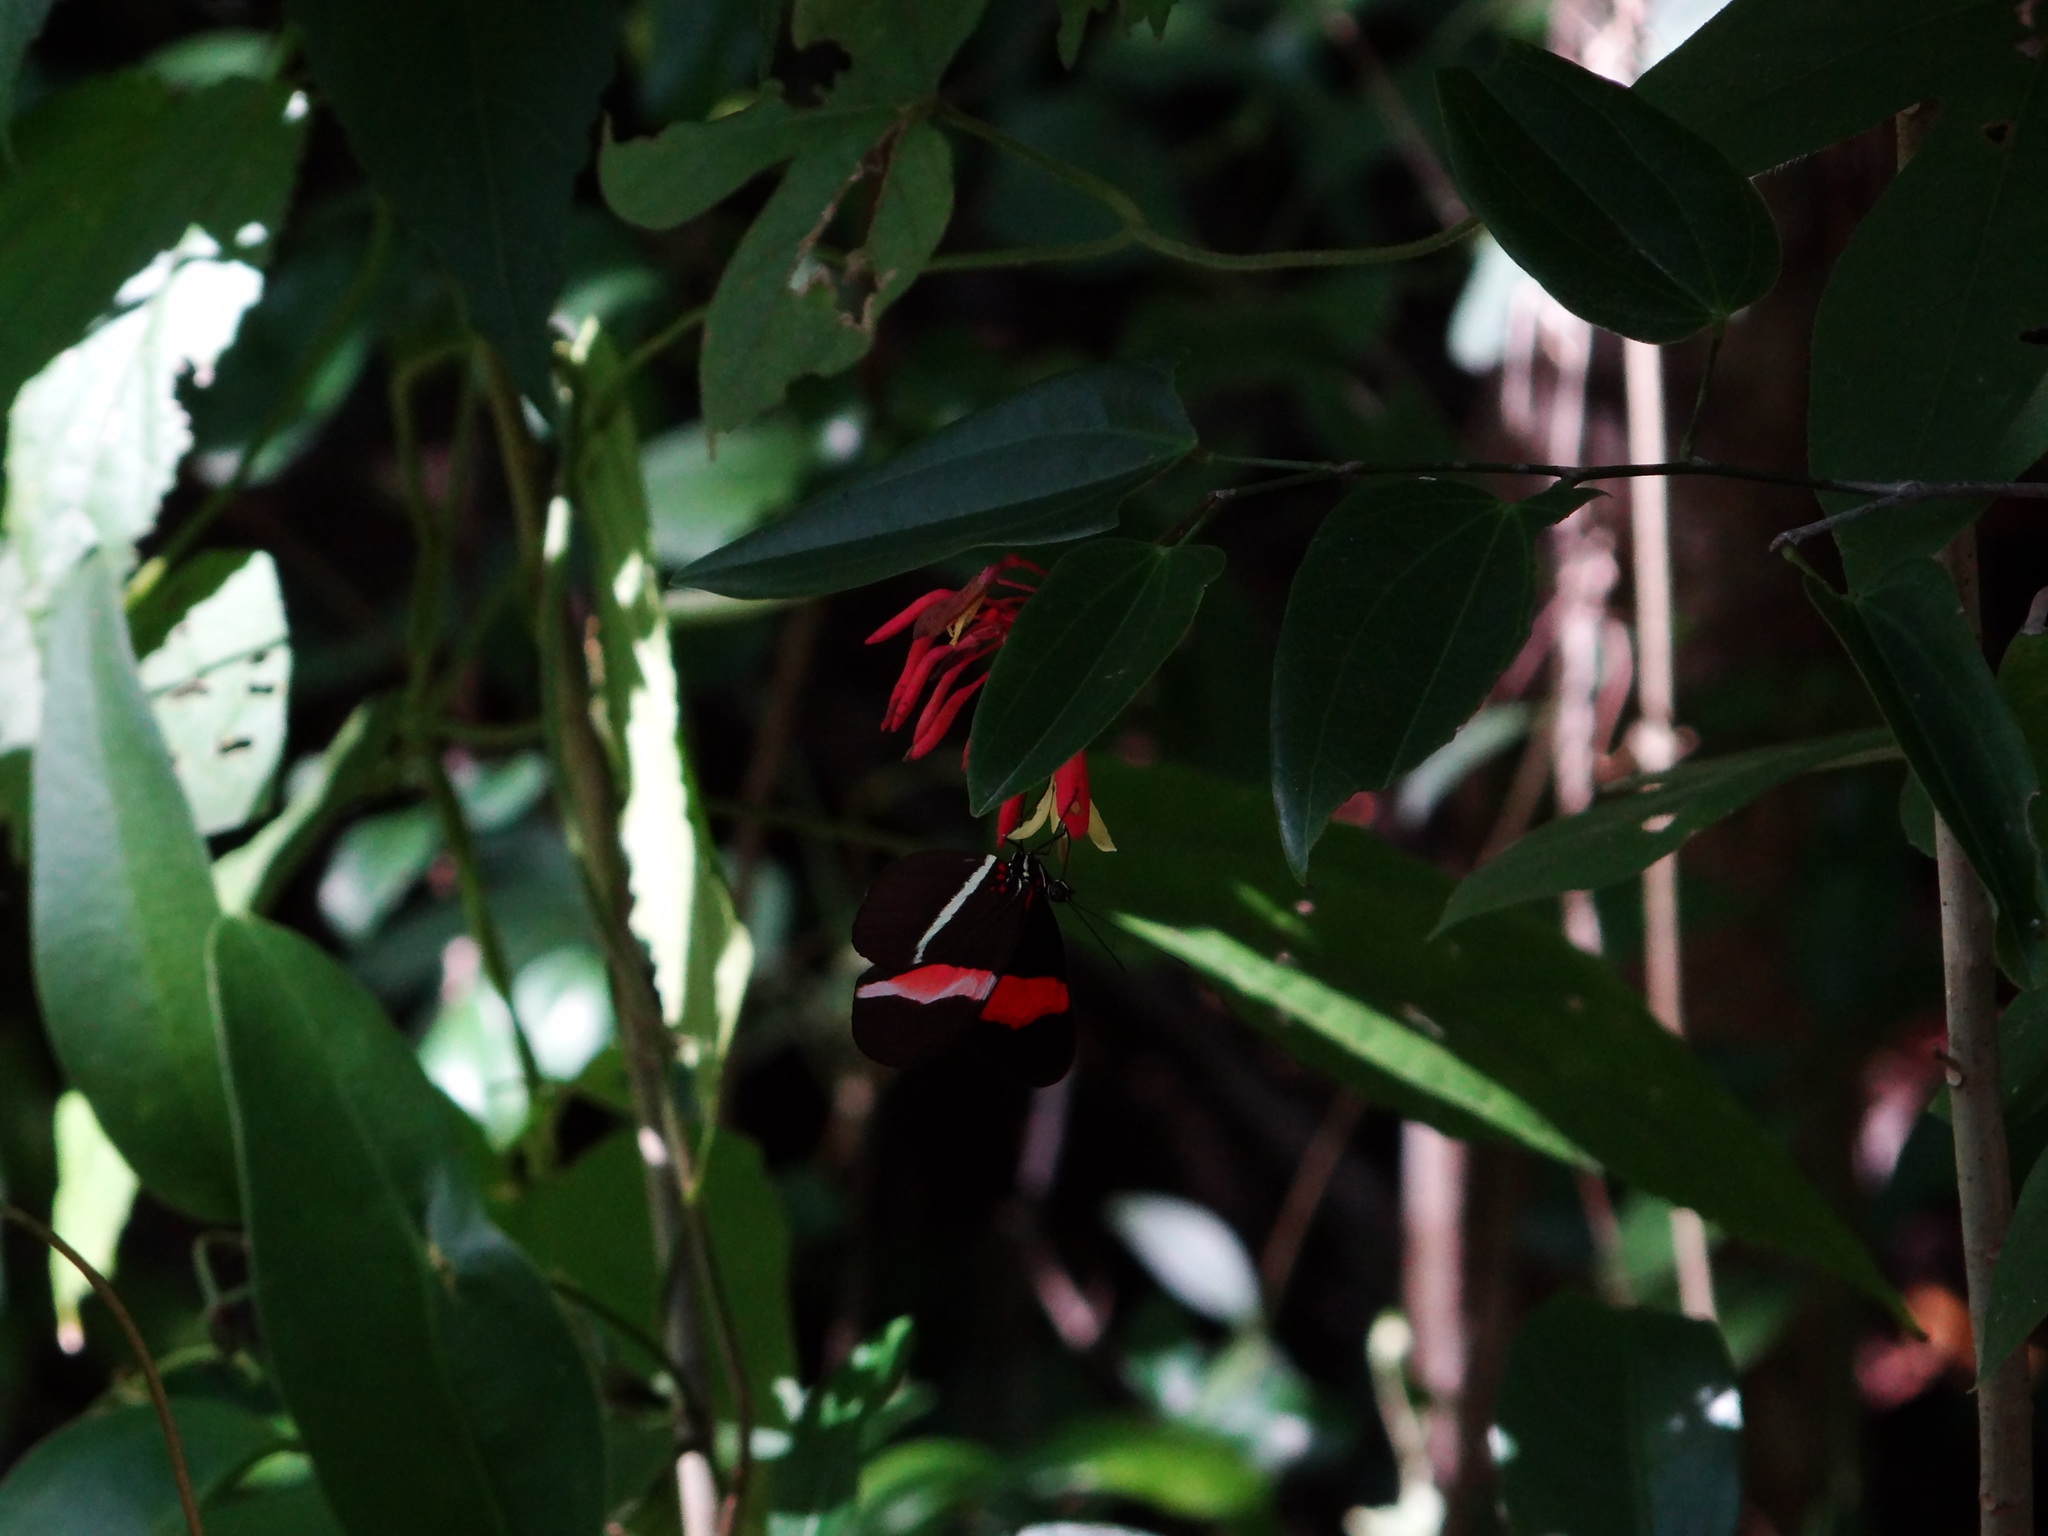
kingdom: Animalia
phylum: Arthropoda
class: Insecta
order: Lepidoptera
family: Nymphalidae
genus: Tirumala
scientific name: Tirumala petiverana
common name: Blue monarch
